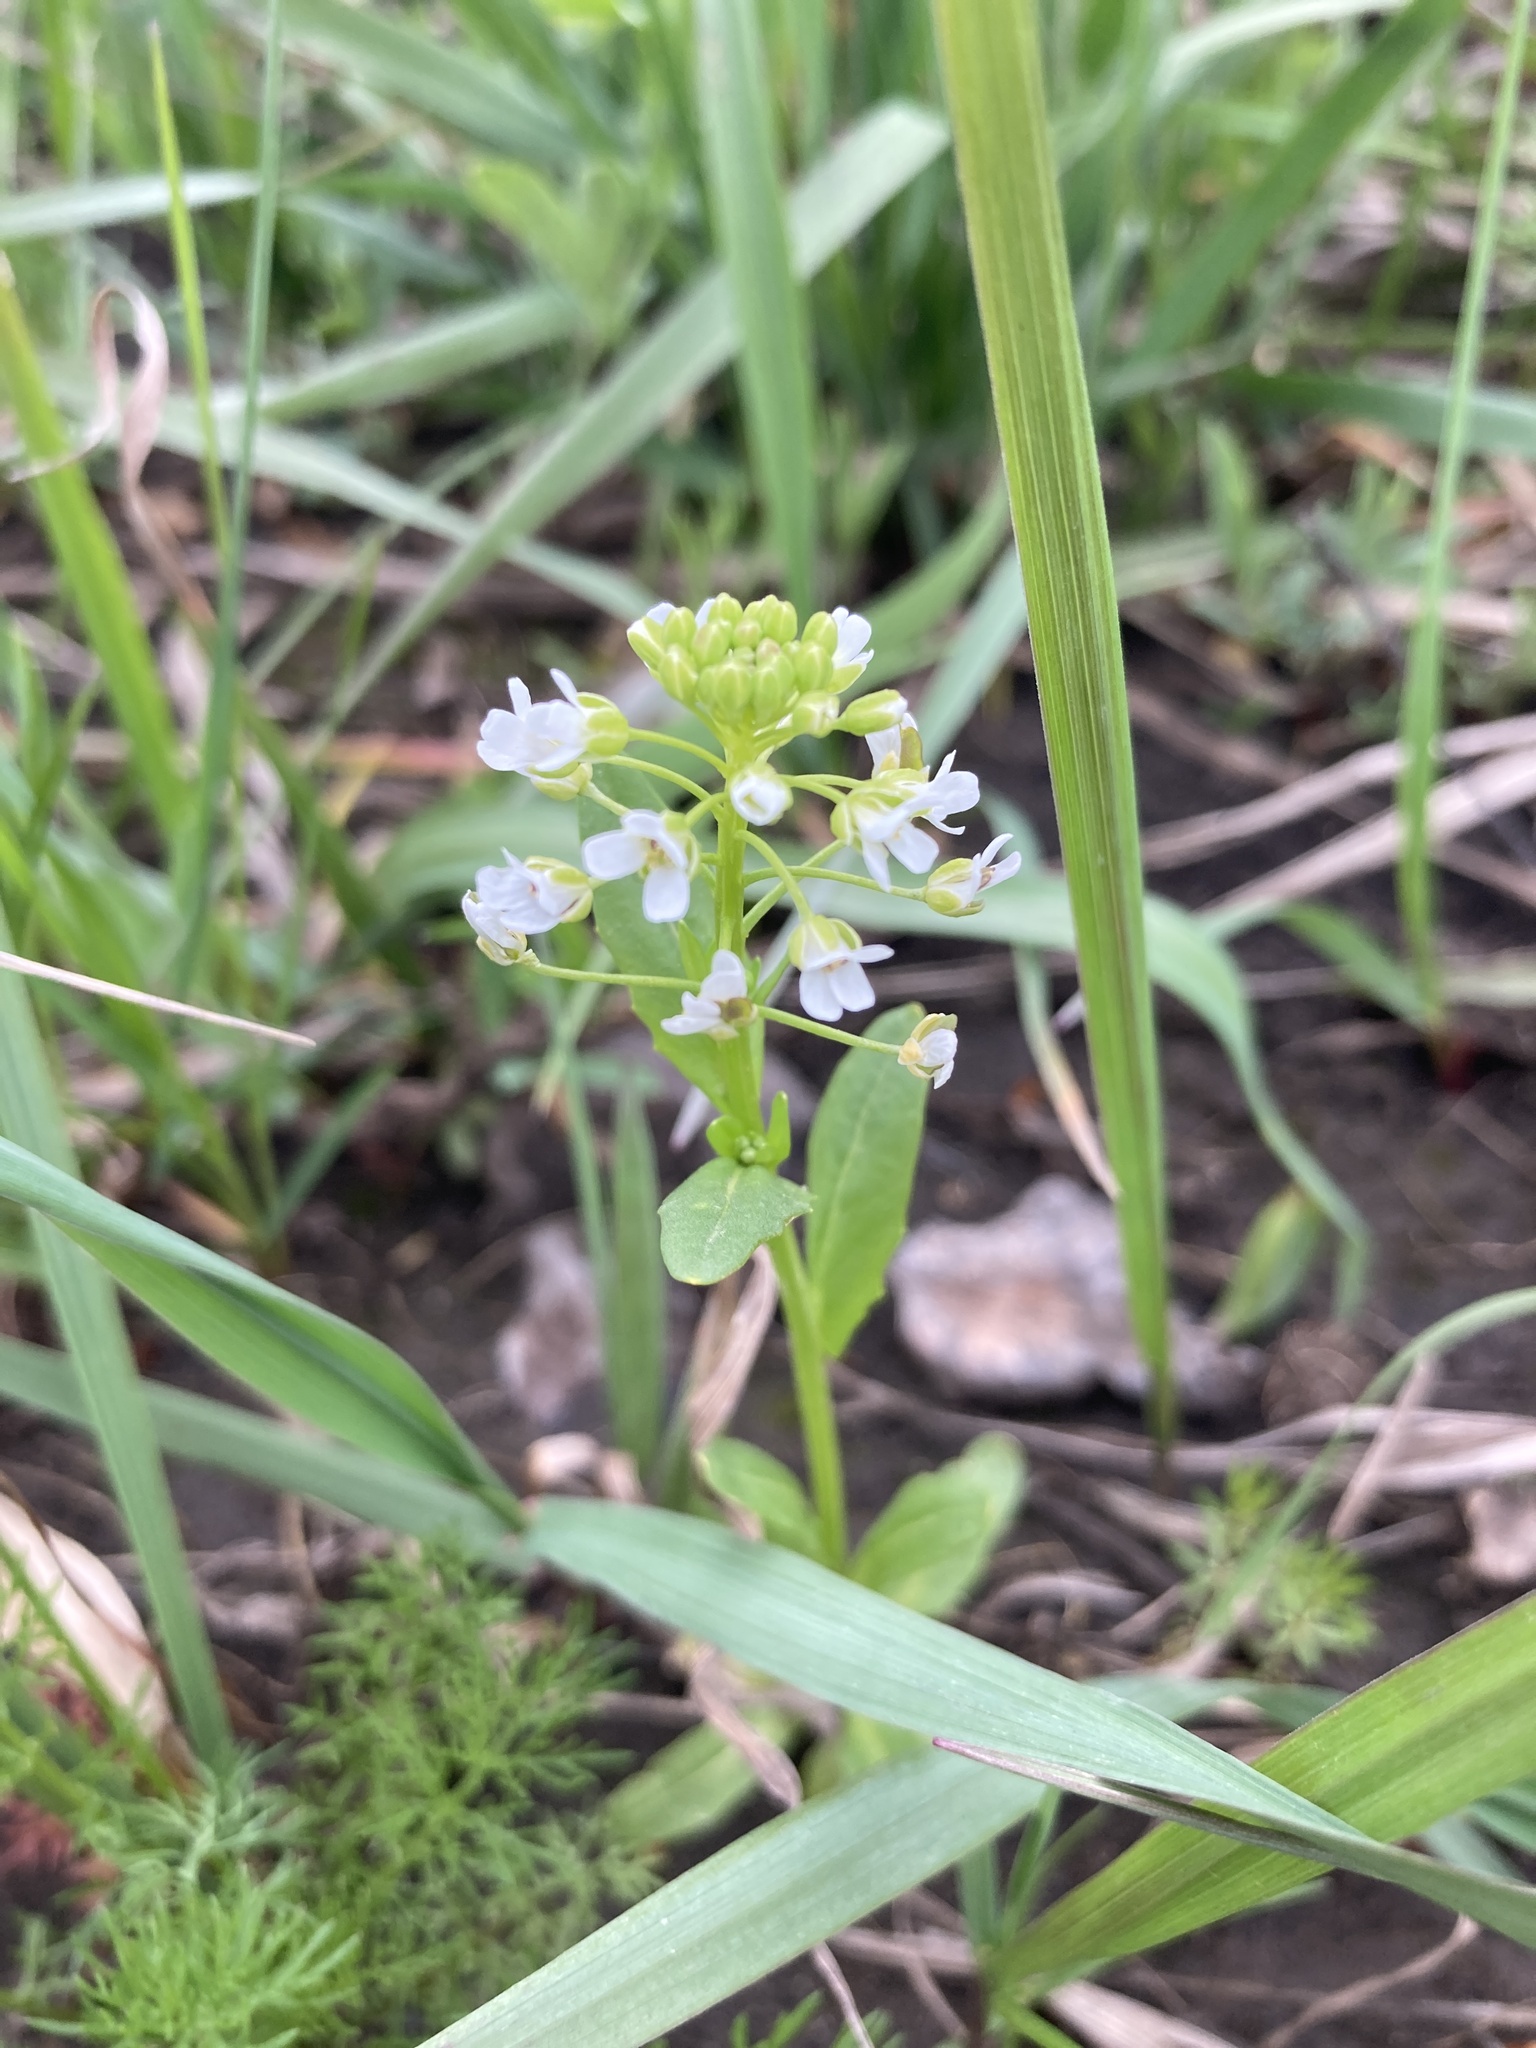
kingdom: Plantae
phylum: Tracheophyta
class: Magnoliopsida
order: Brassicales
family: Brassicaceae
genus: Thlaspi
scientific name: Thlaspi arvense
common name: Field pennycress
